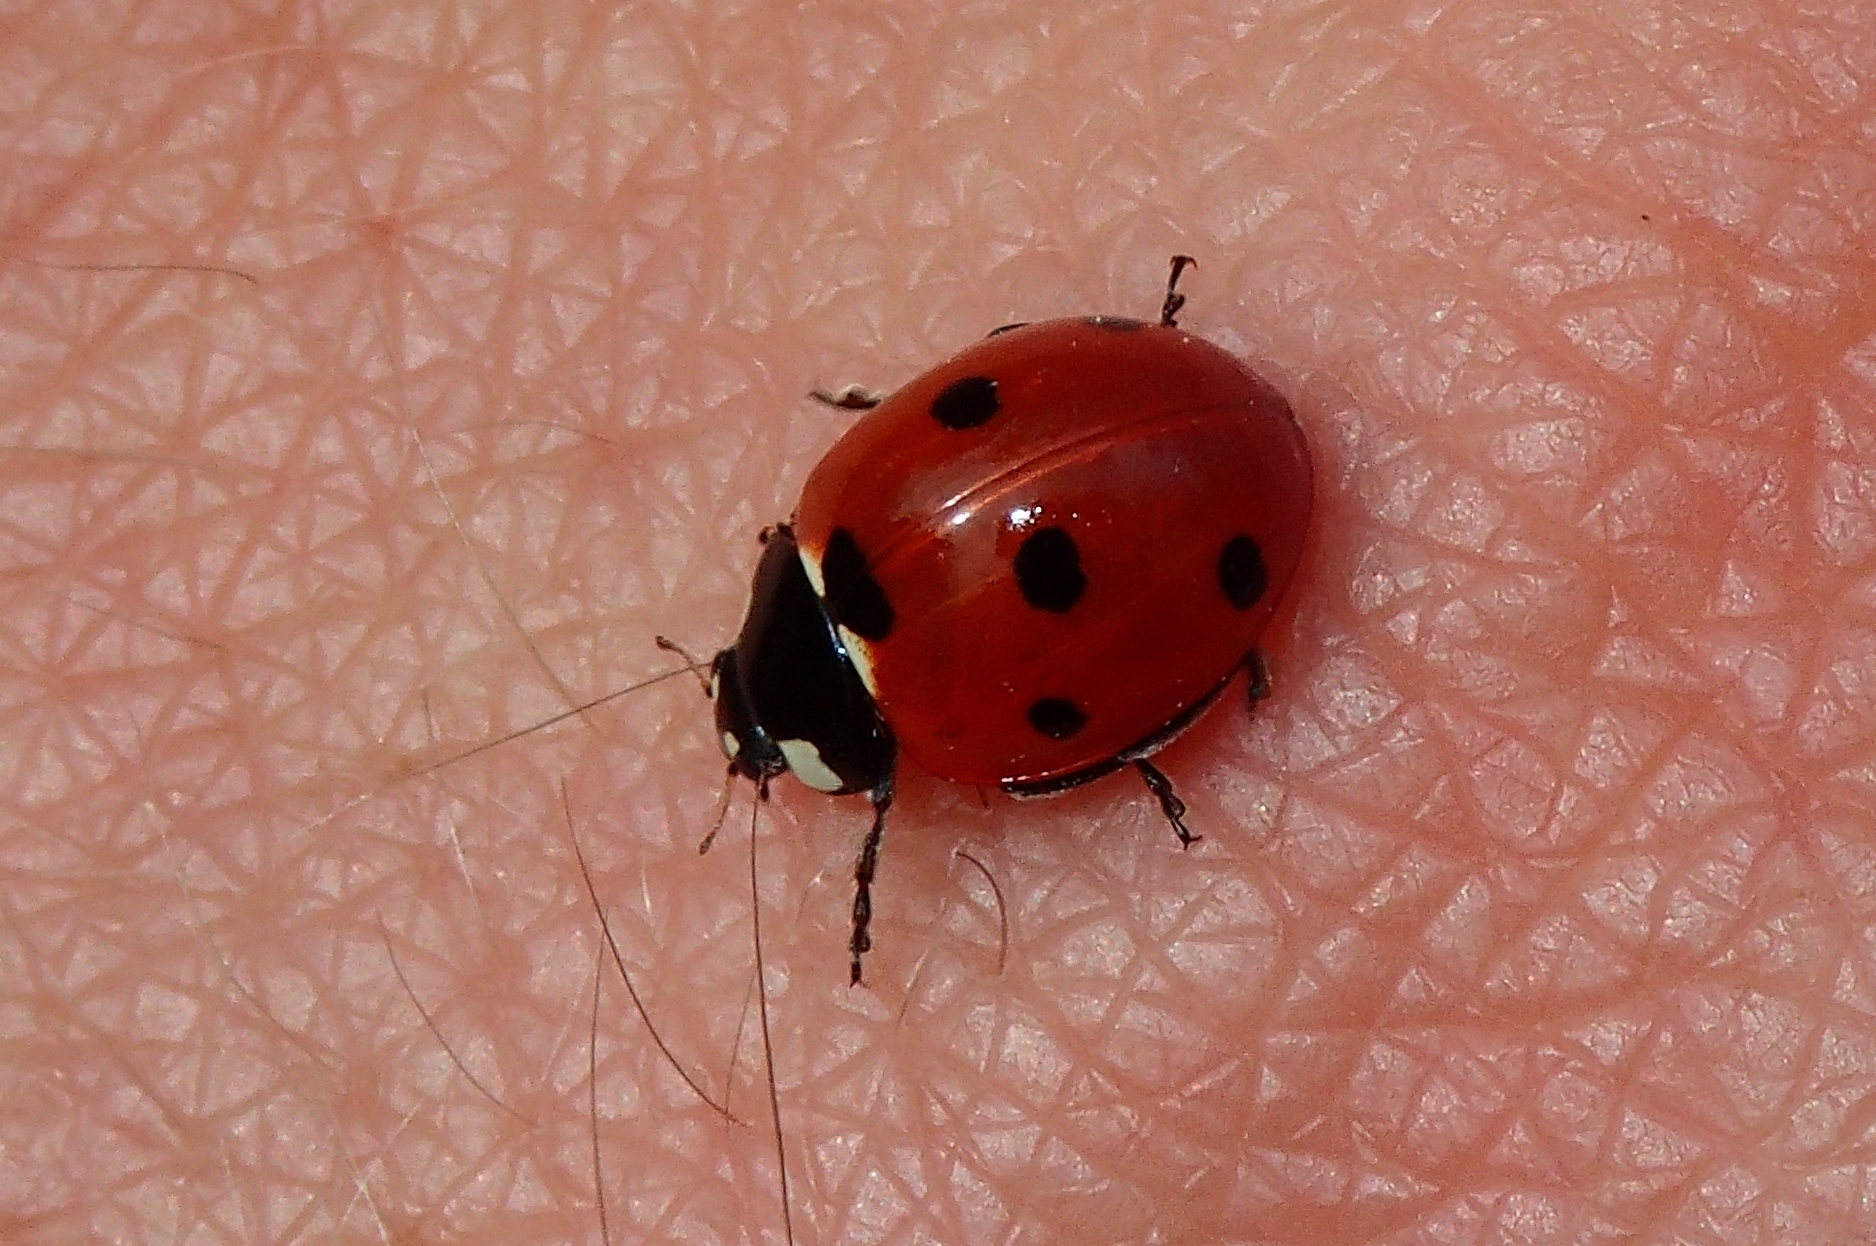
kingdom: Animalia
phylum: Arthropoda
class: Insecta
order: Coleoptera
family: Coccinellidae
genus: Coccinella
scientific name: Coccinella septempunctata
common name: Sevenspotted lady beetle
